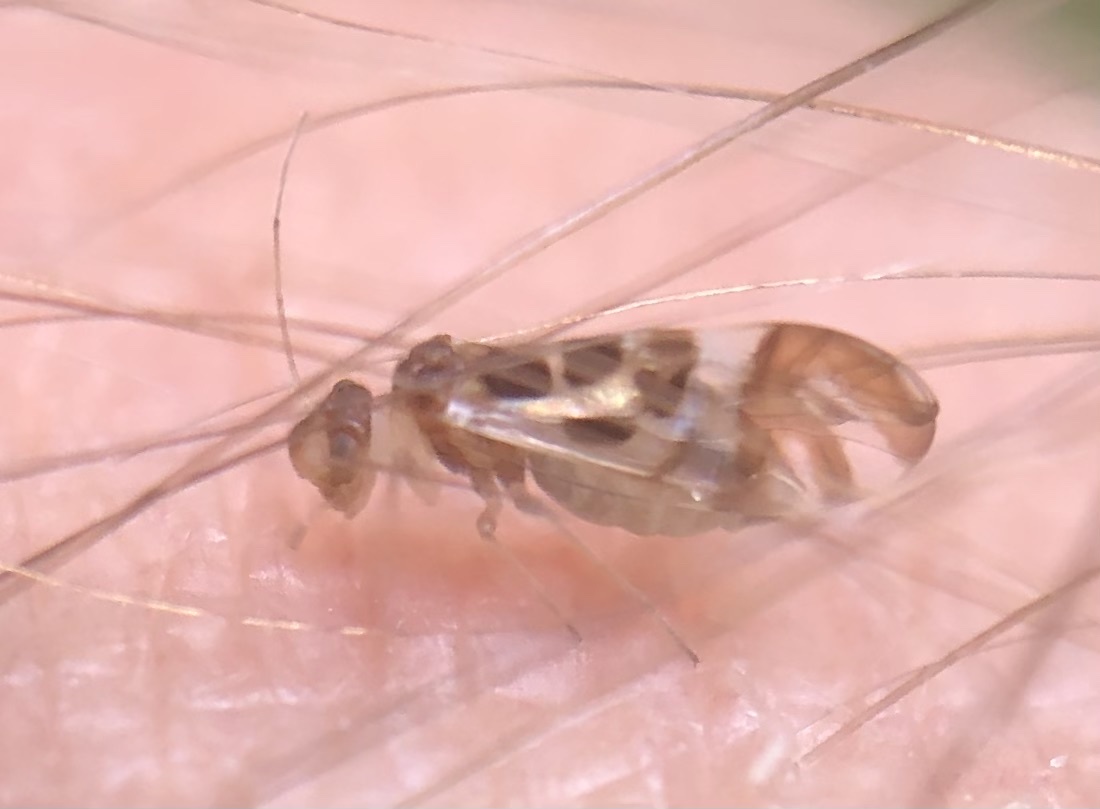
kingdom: Animalia
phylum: Arthropoda
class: Insecta
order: Psocodea
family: Stenopsocidae
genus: Graphopsocus
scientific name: Graphopsocus cruciatus
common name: Lizard bark louse
